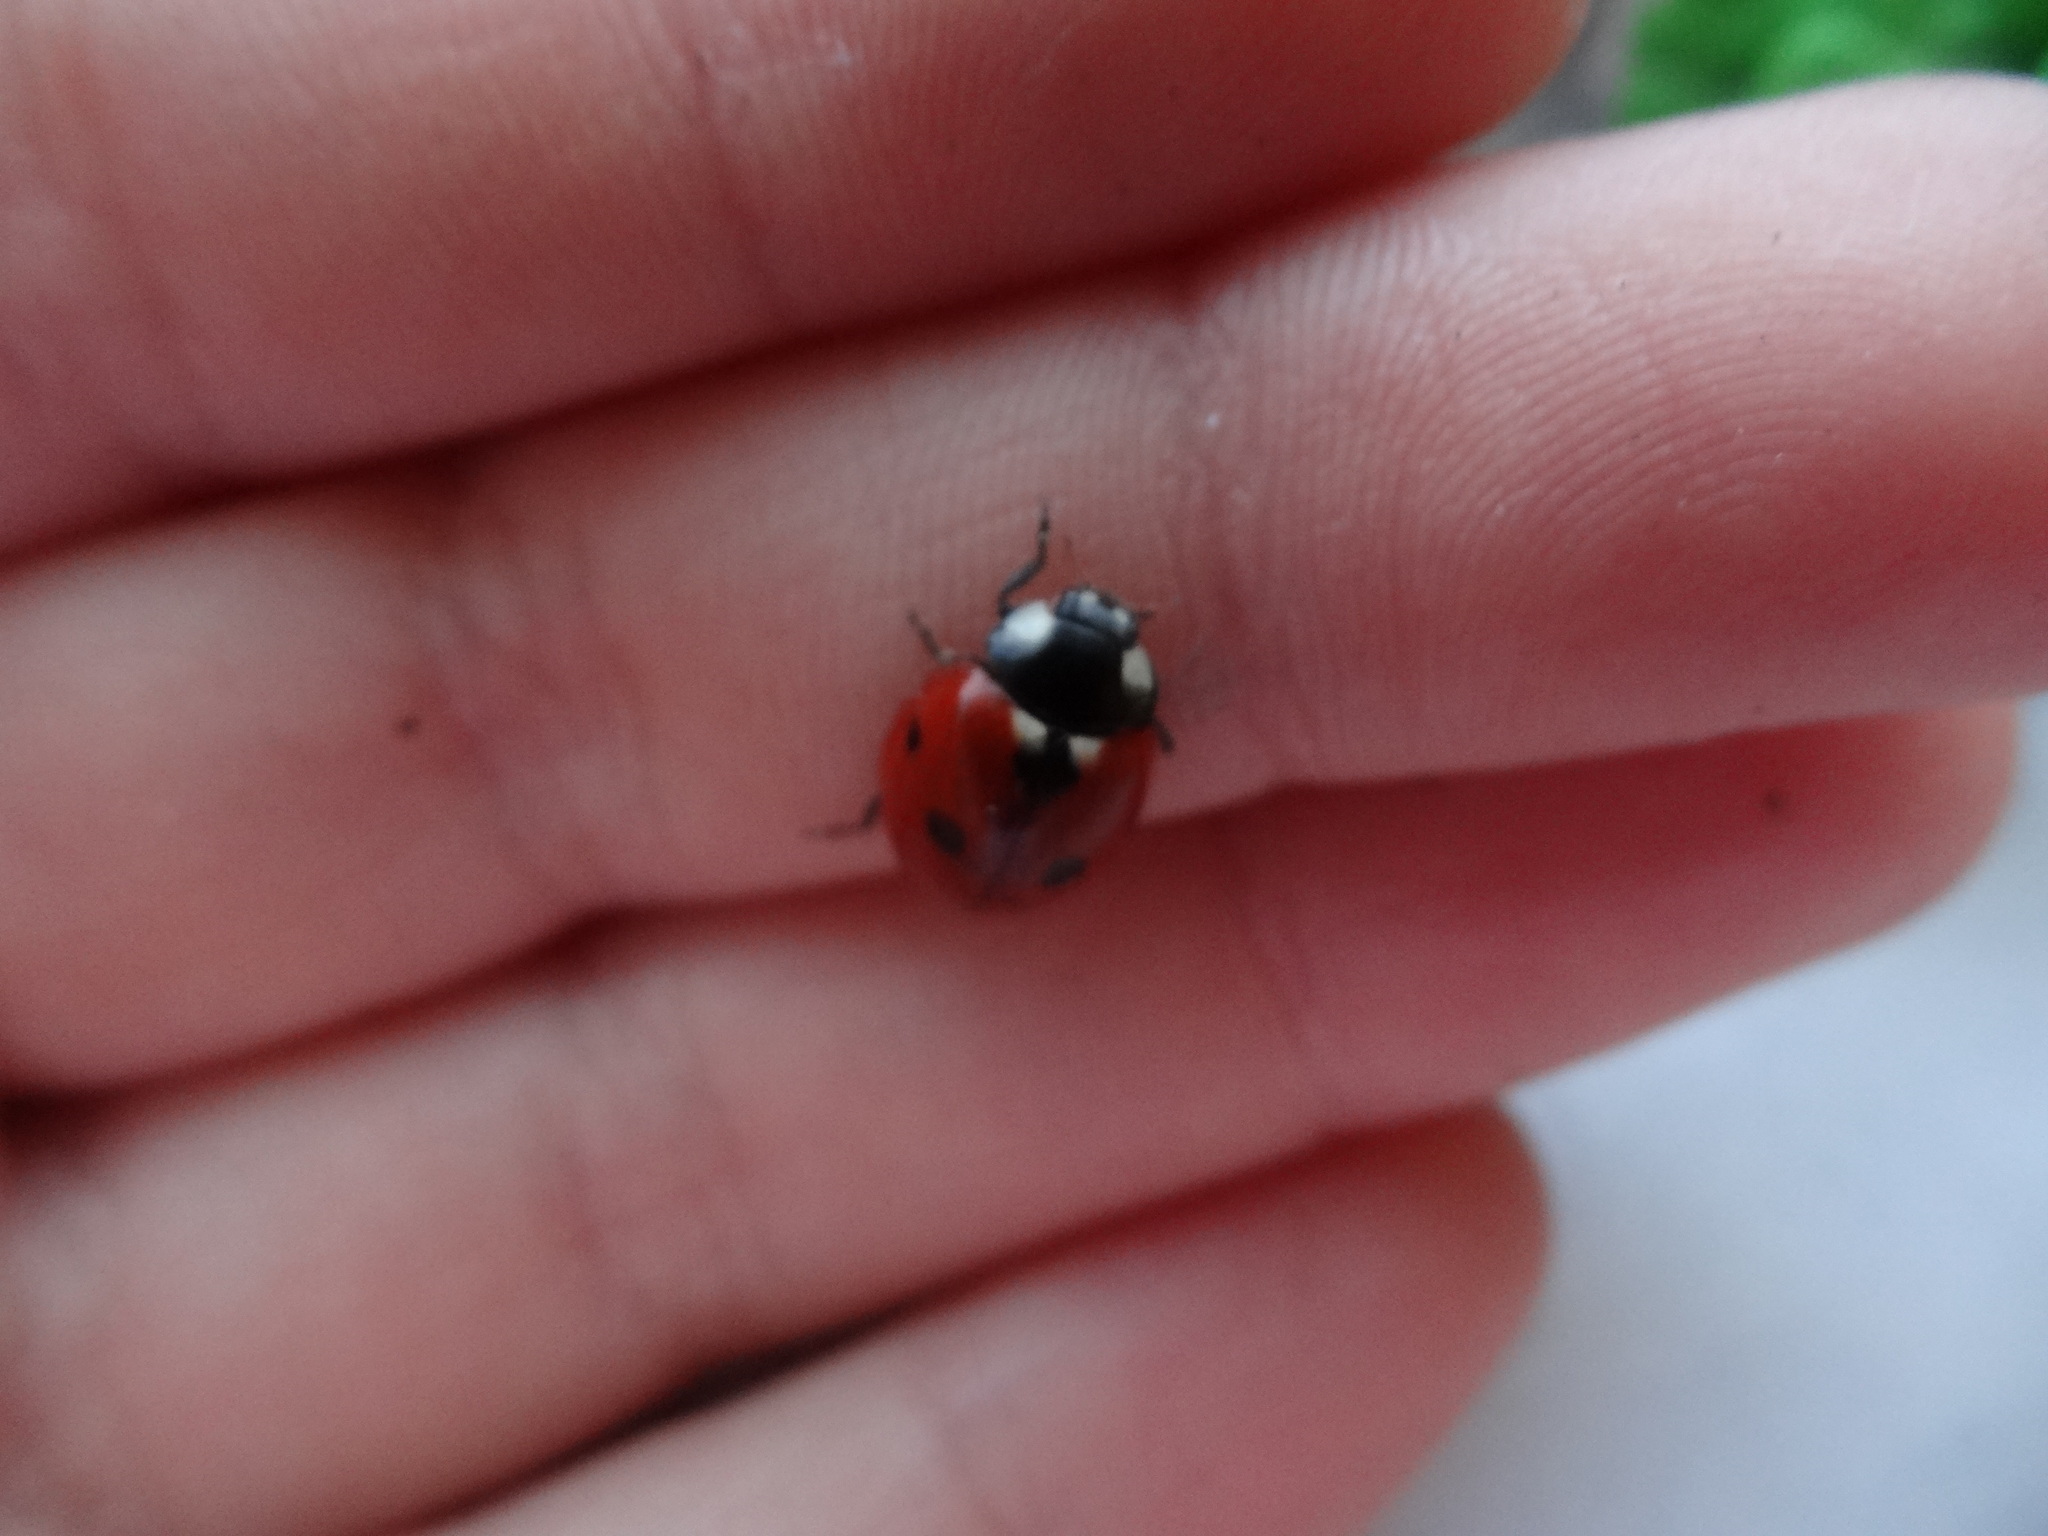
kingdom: Animalia
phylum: Arthropoda
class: Insecta
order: Coleoptera
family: Coccinellidae
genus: Coccinella
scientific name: Coccinella septempunctata
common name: Sevenspotted lady beetle
